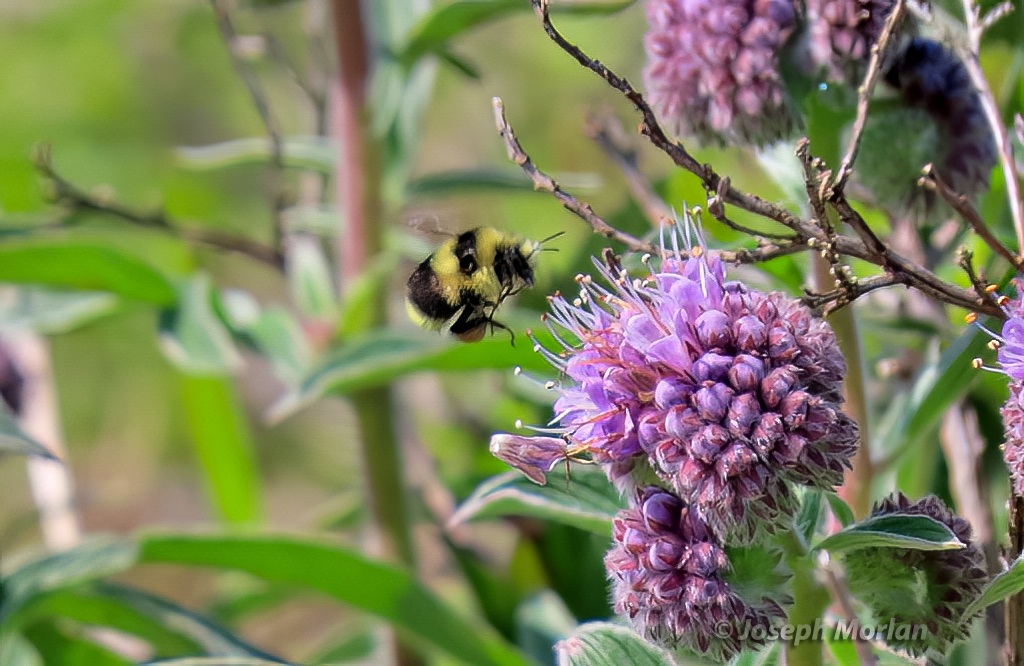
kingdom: Plantae
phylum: Tracheophyta
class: Magnoliopsida
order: Boraginales
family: Hydrophyllaceae
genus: Phacelia
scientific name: Phacelia californica
